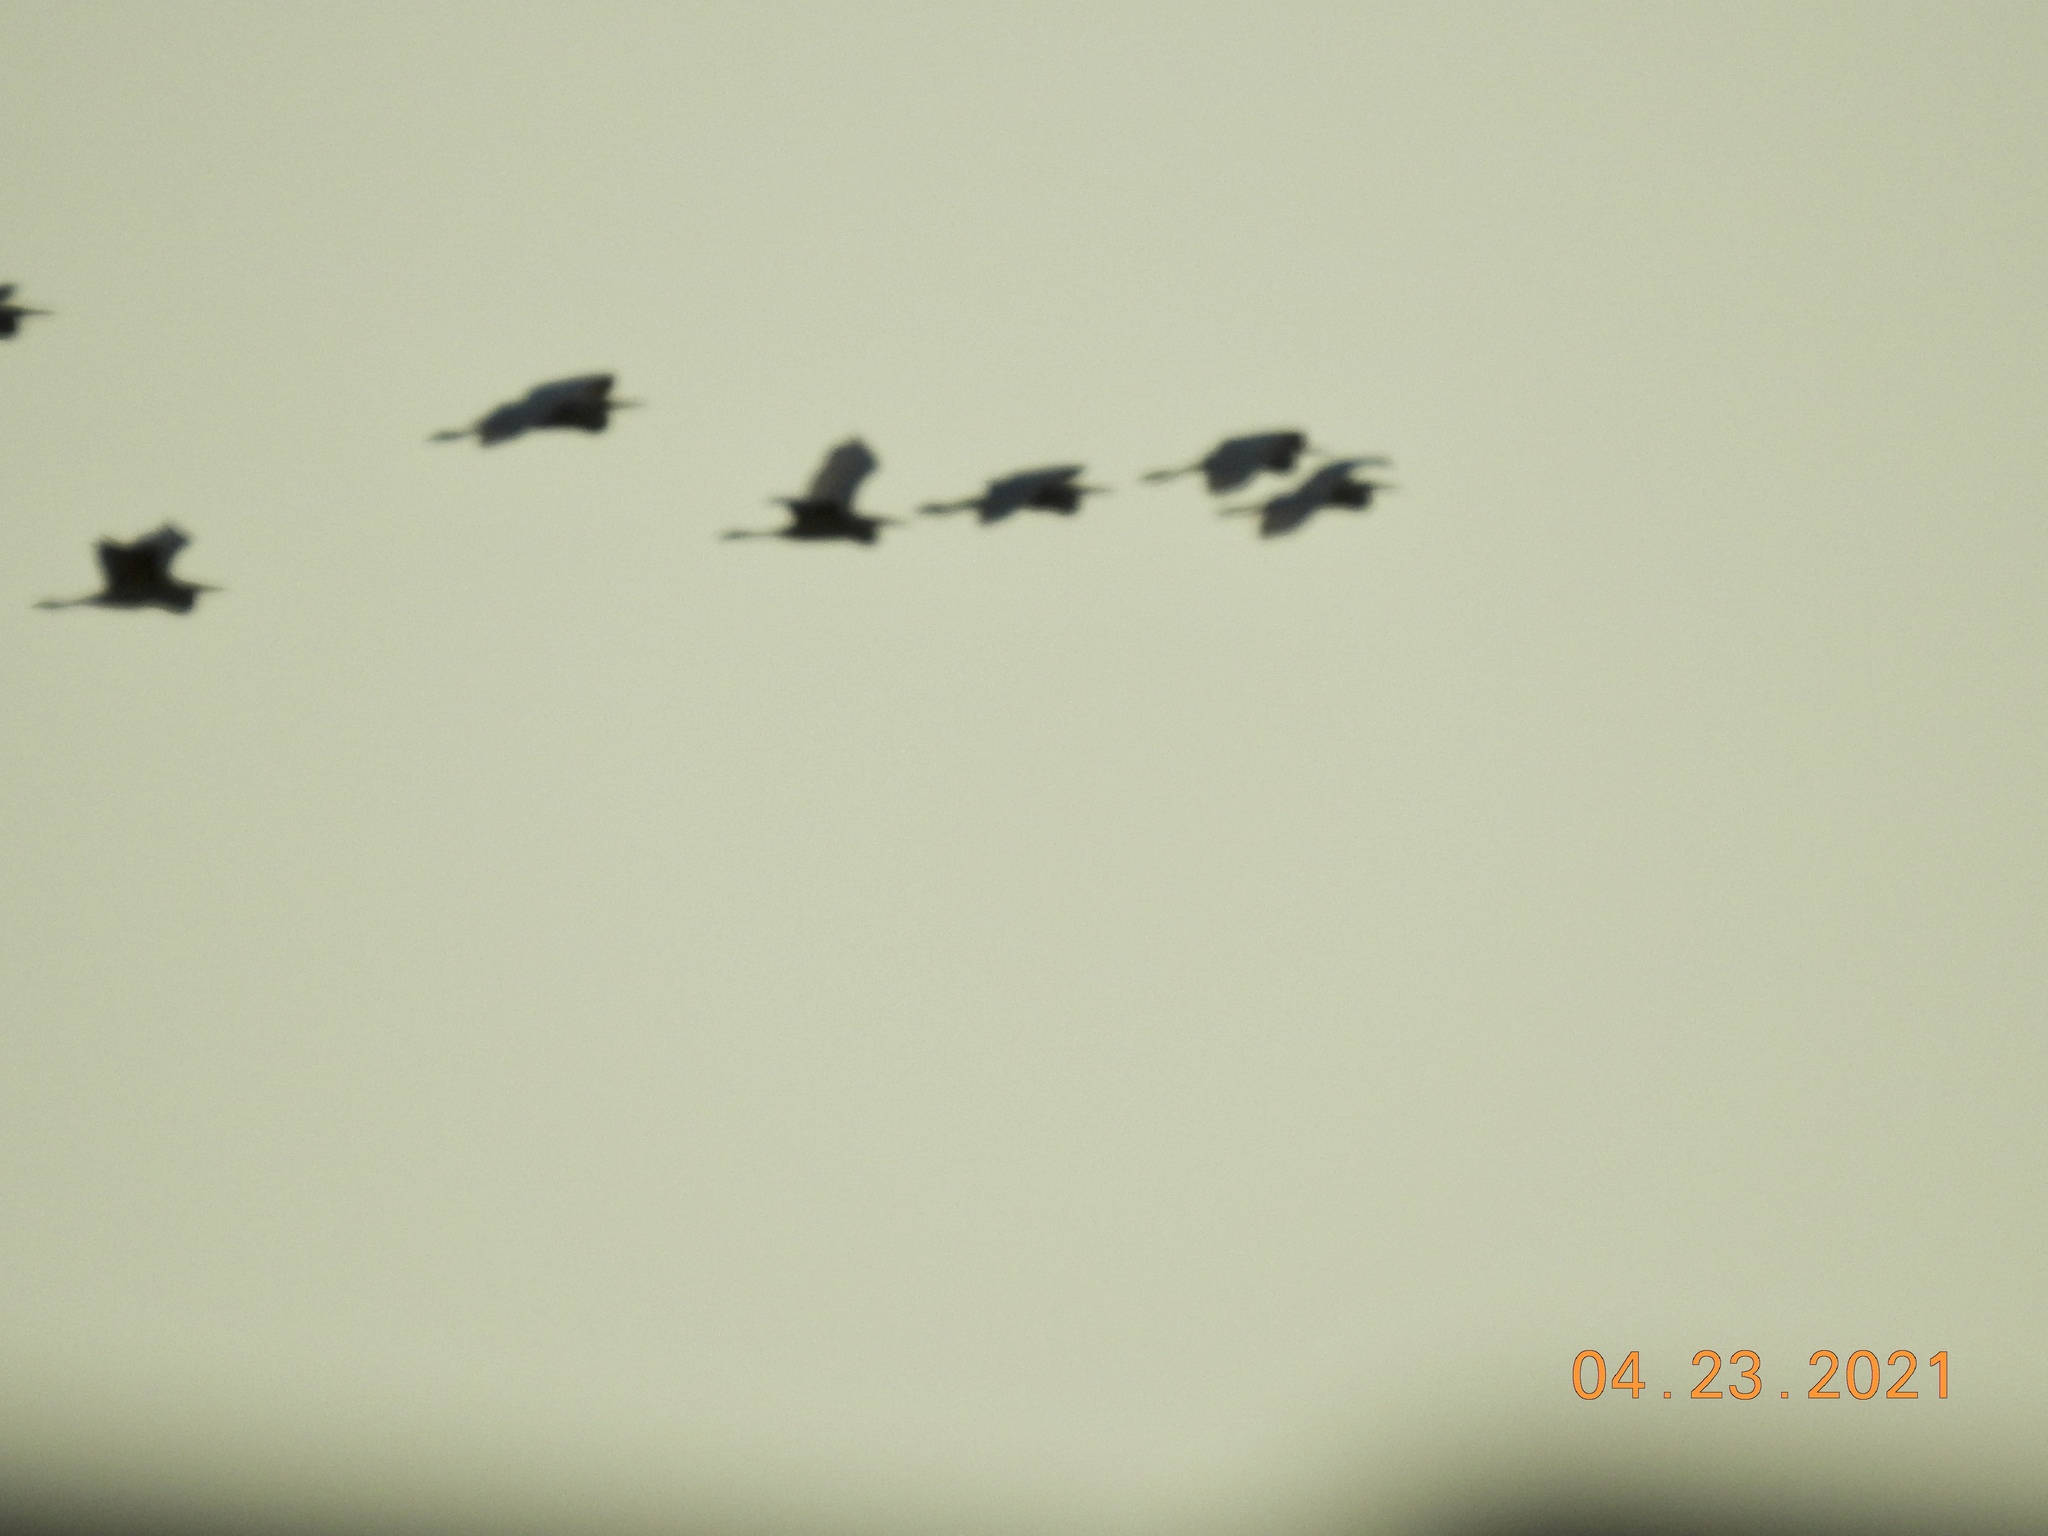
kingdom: Animalia
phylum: Chordata
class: Aves
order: Pelecaniformes
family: Ardeidae
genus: Ardea
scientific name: Ardea herodias
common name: Great blue heron
